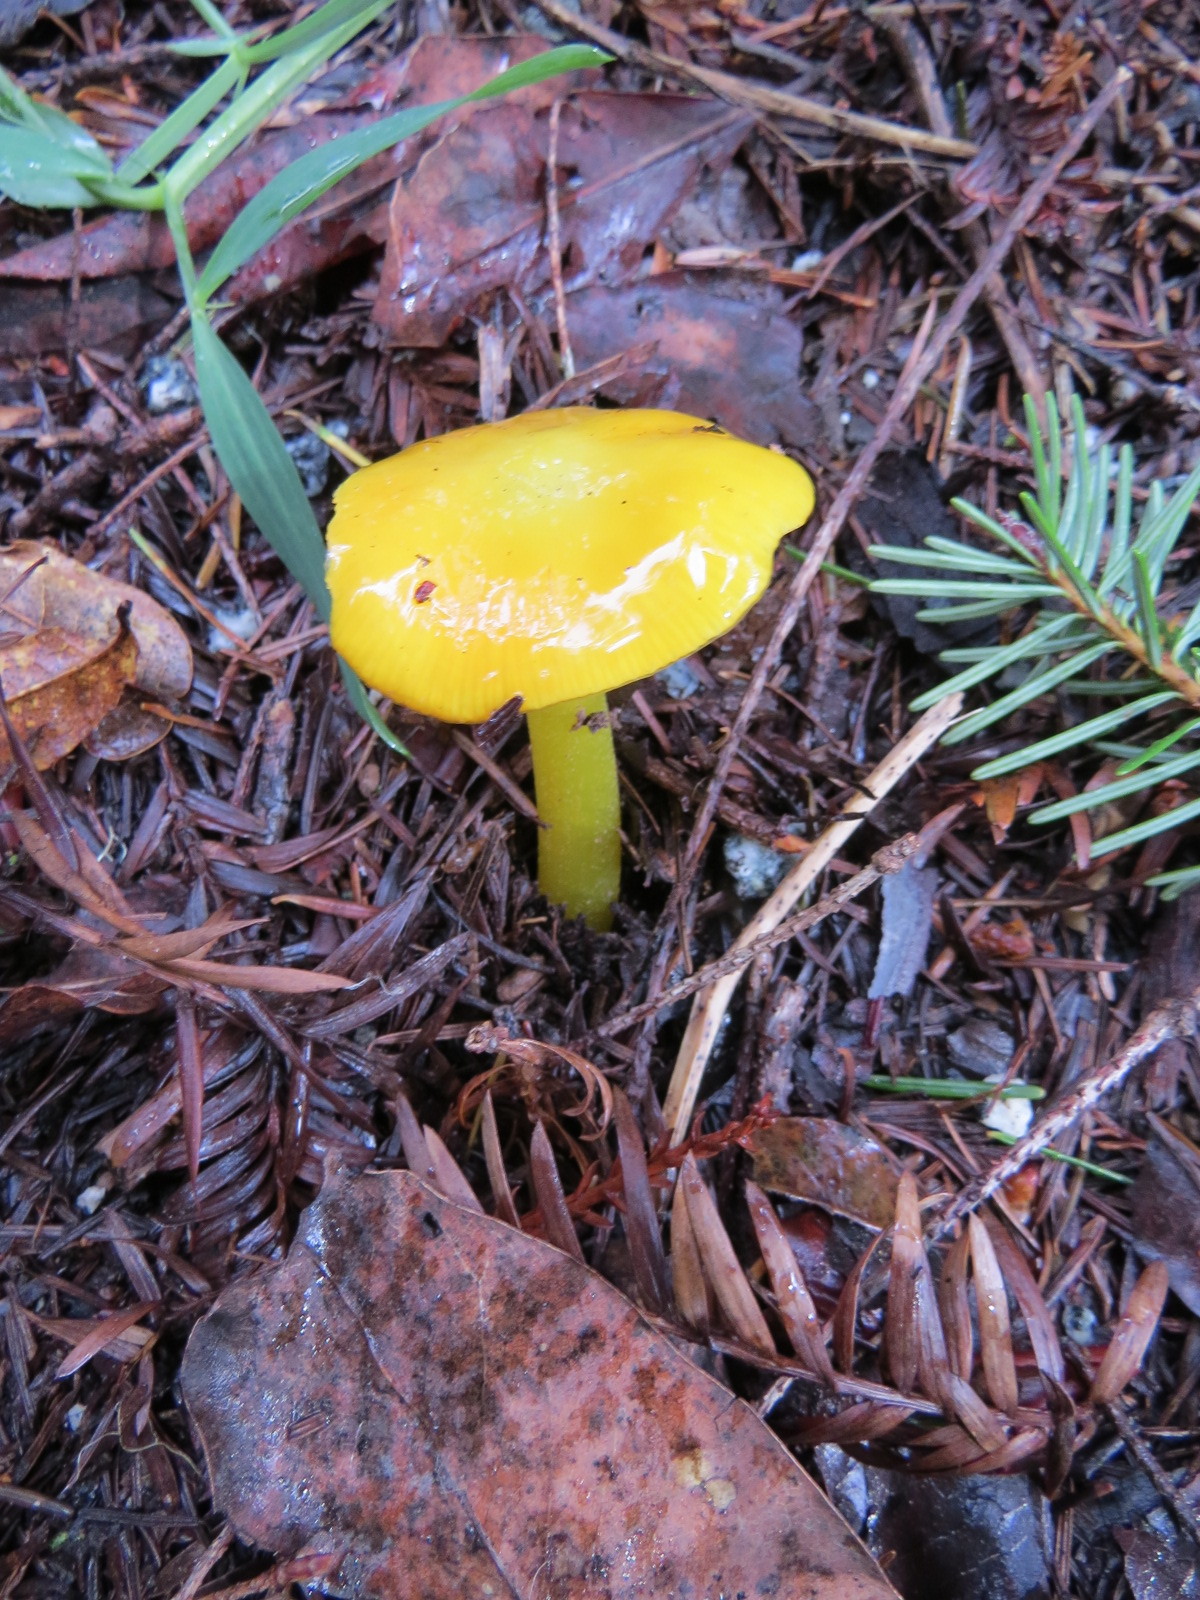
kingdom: Fungi
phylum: Basidiomycota
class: Agaricomycetes
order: Agaricales
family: Hygrophoraceae
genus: Hygrocybe
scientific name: Hygrocybe flavescens
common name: Golden waxy cap
